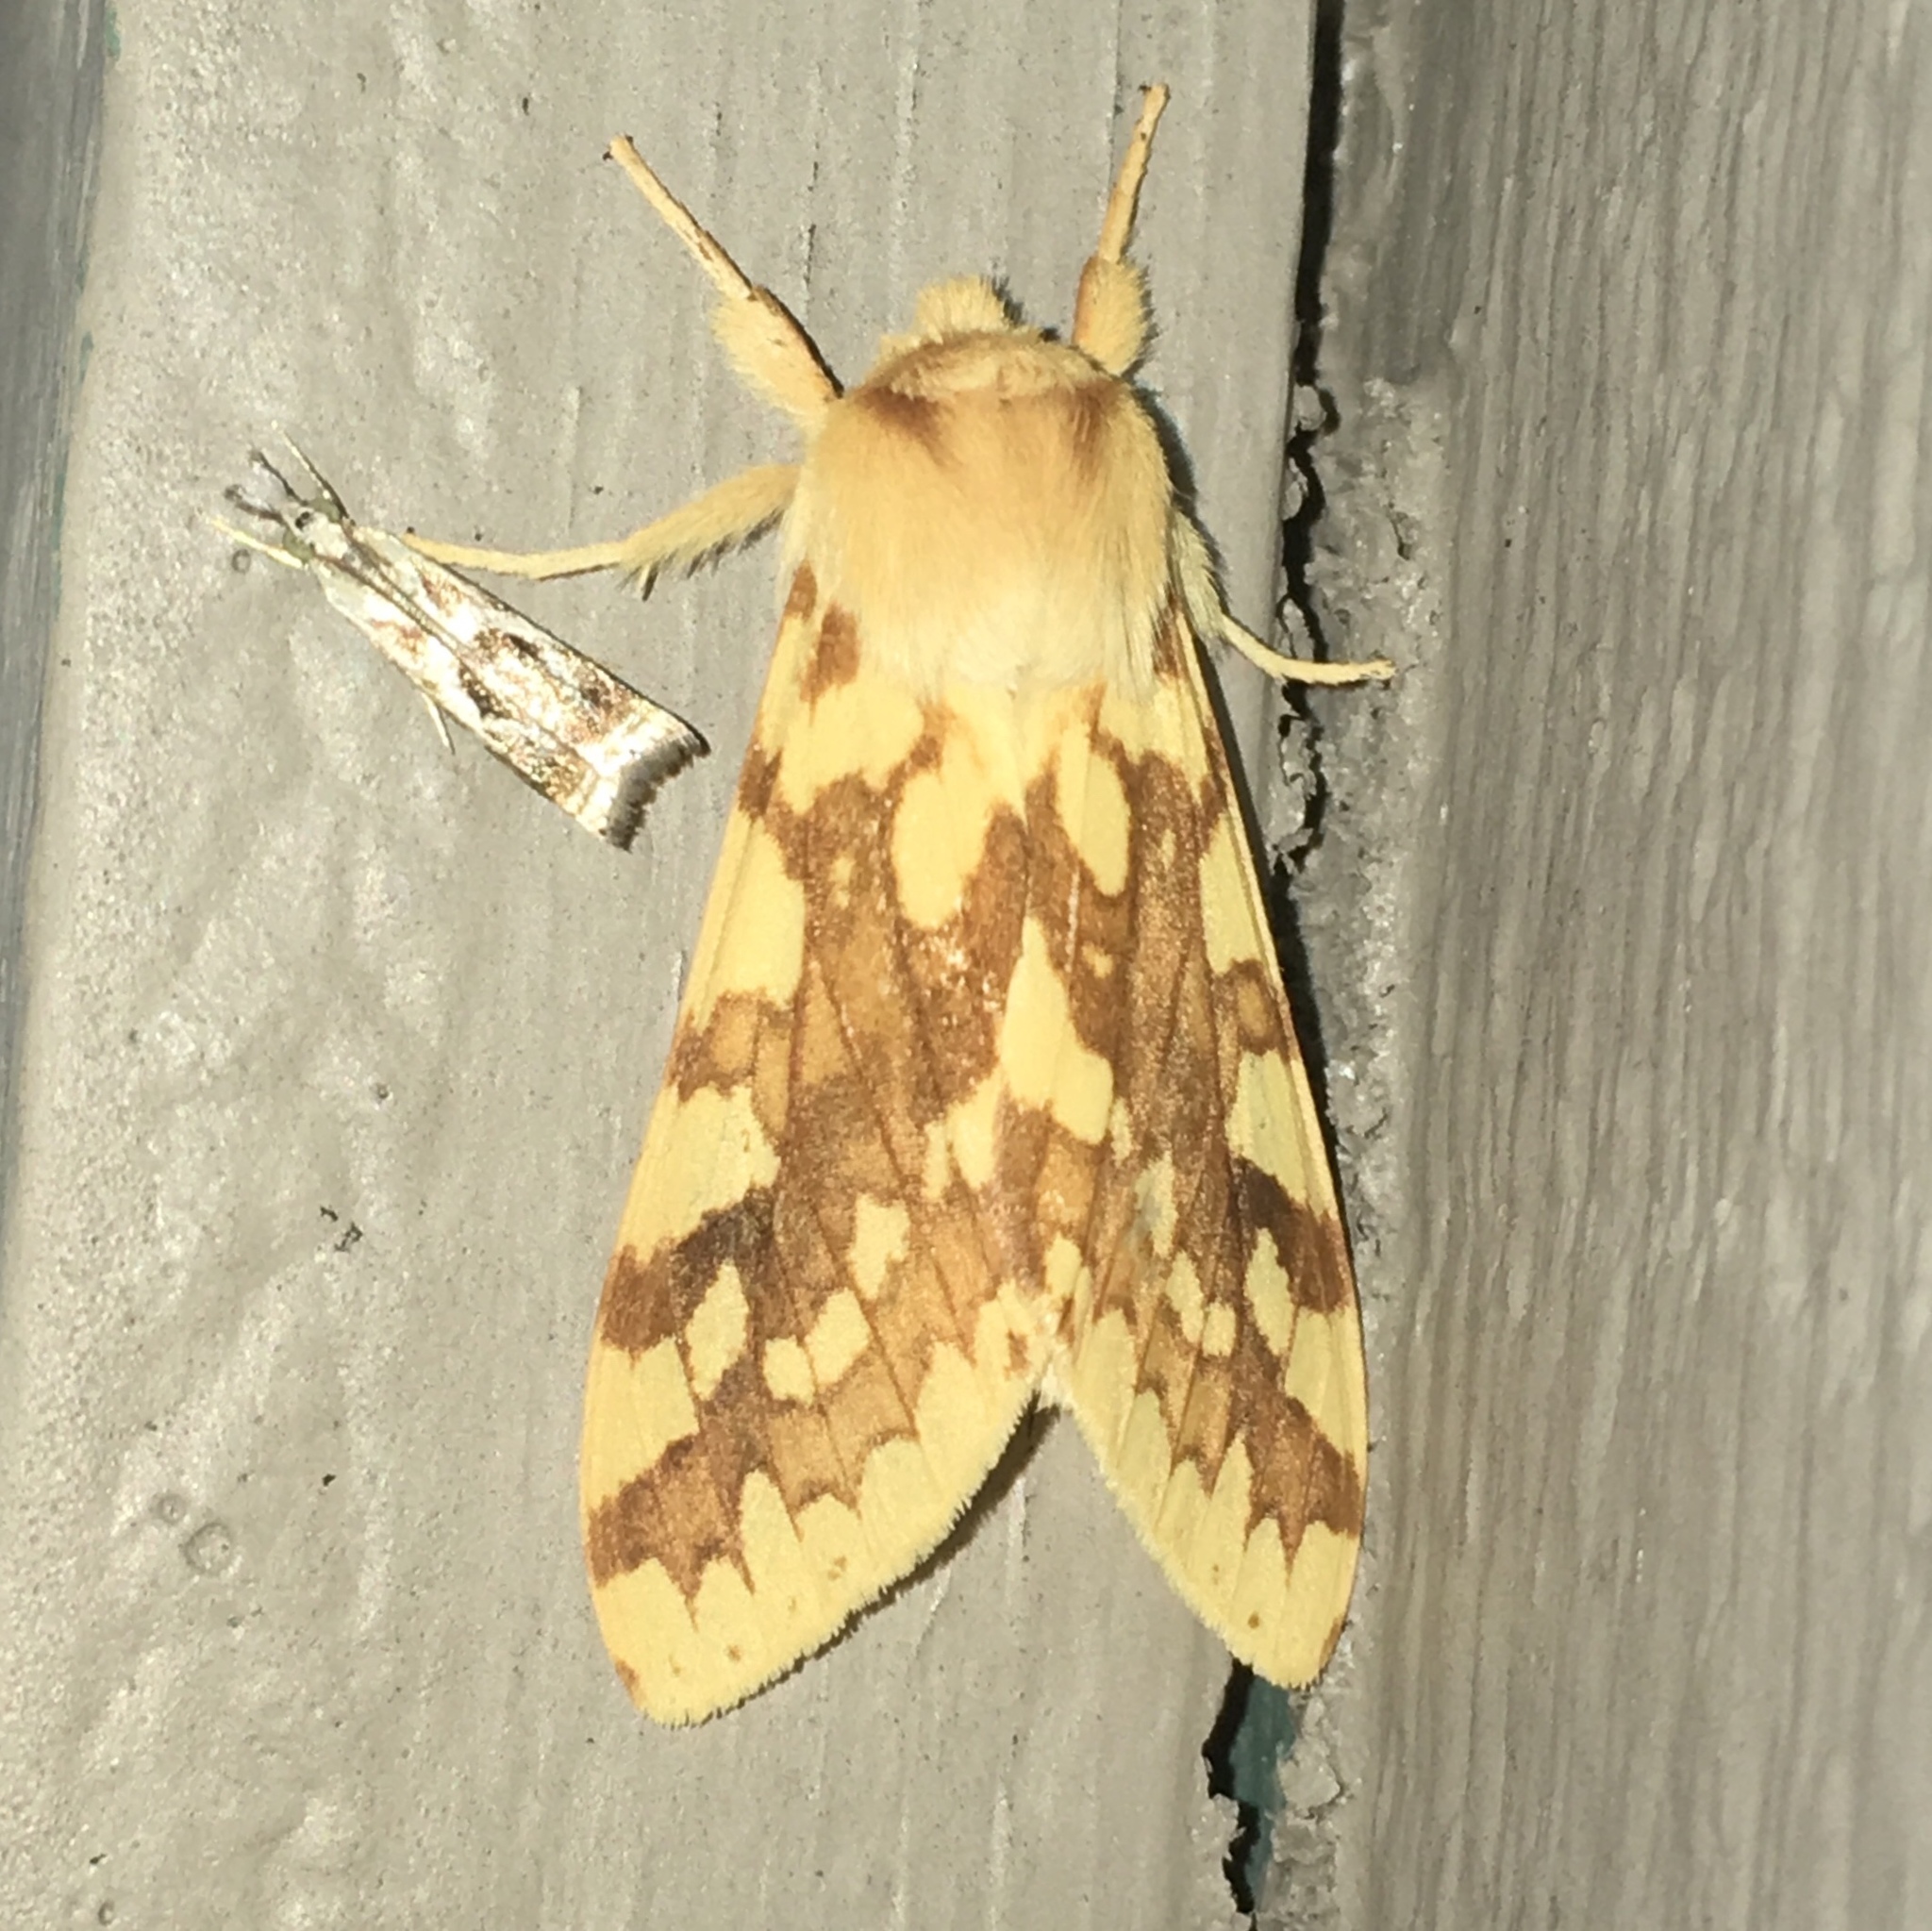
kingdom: Animalia
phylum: Arthropoda
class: Insecta
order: Lepidoptera
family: Erebidae
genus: Lophocampa
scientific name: Lophocampa maculata
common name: Spotted tussock moth
